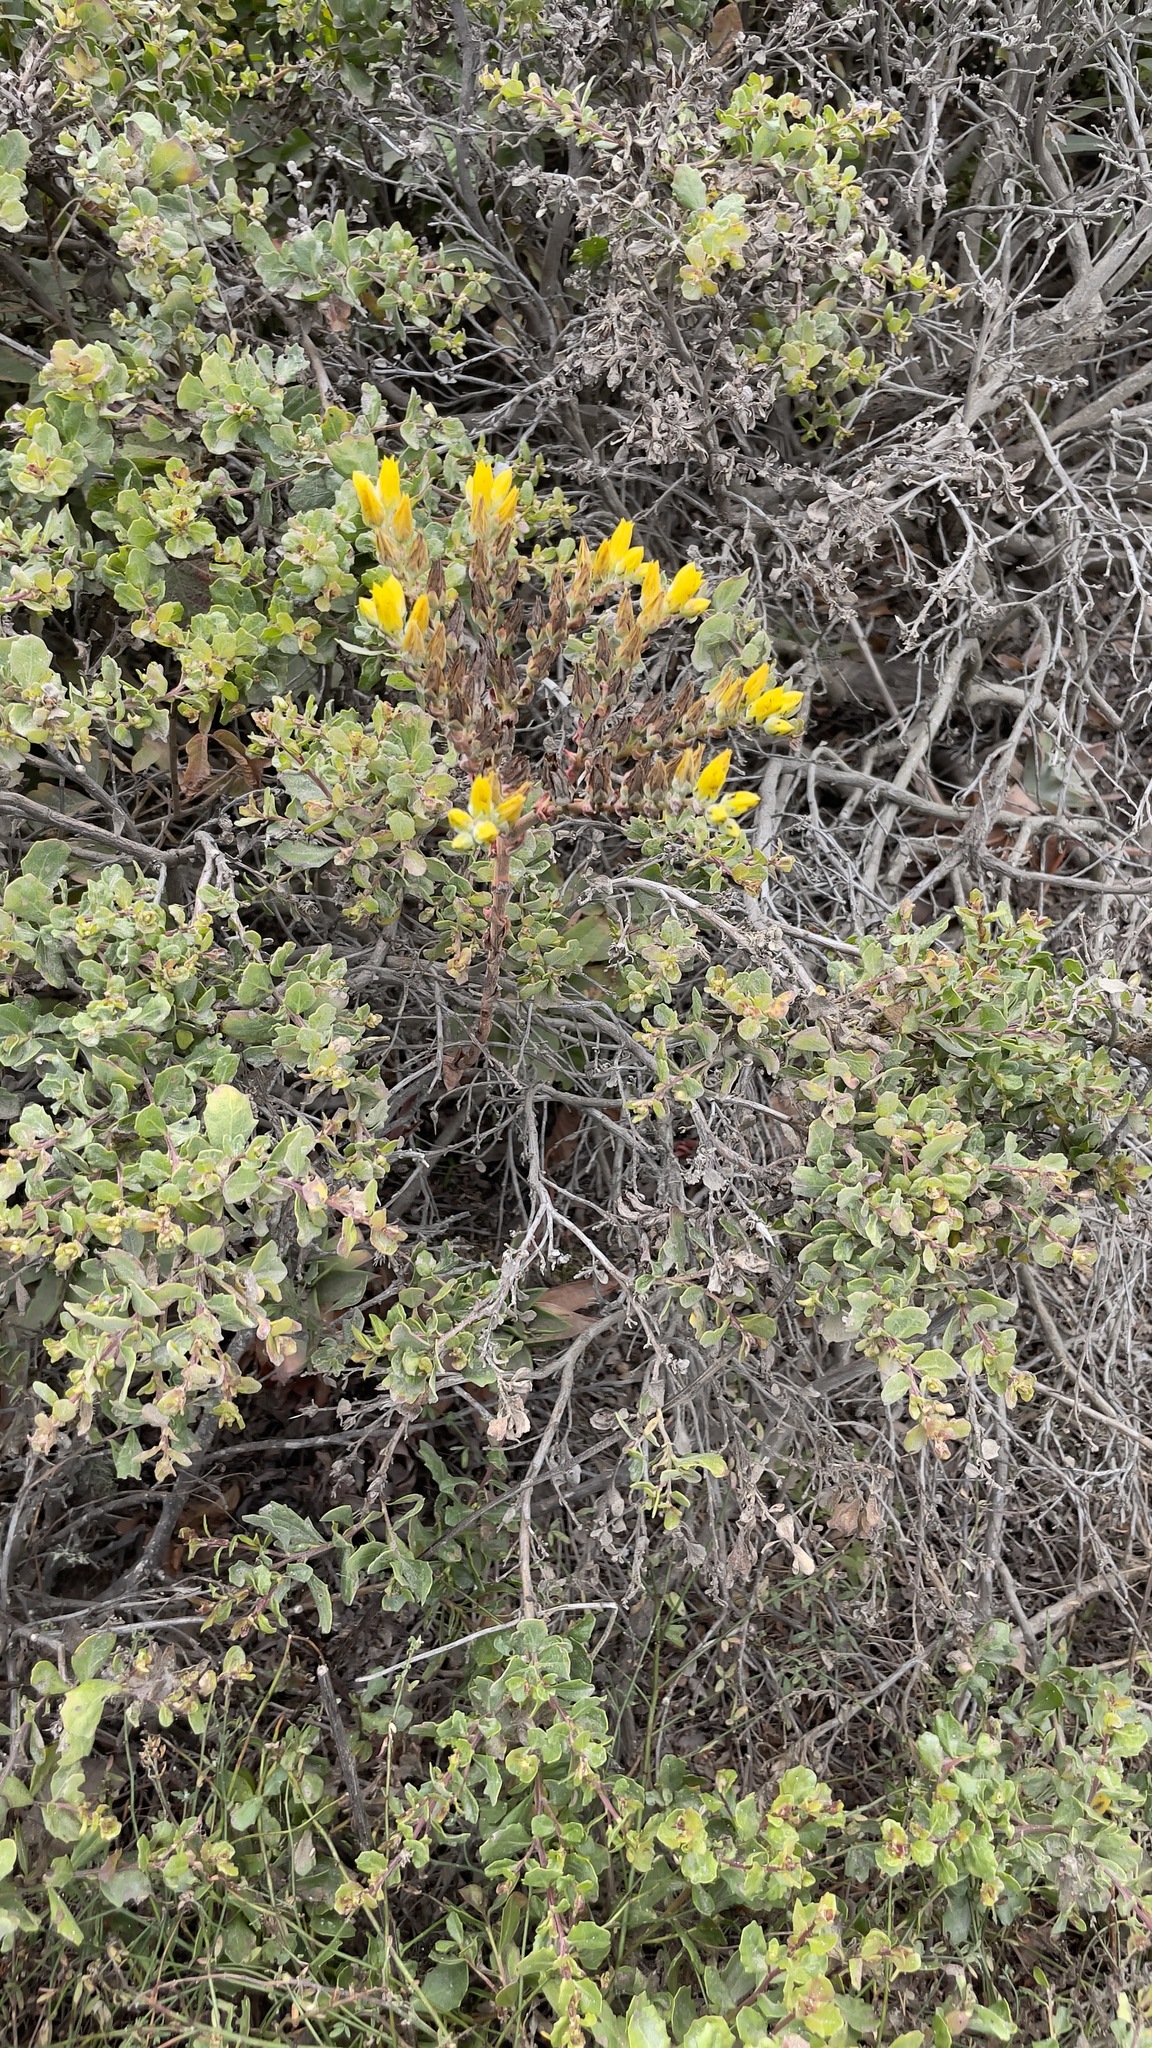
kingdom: Plantae
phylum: Tracheophyta
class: Magnoliopsida
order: Saxifragales
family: Crassulaceae
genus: Dudleya
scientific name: Dudleya caespitosa
